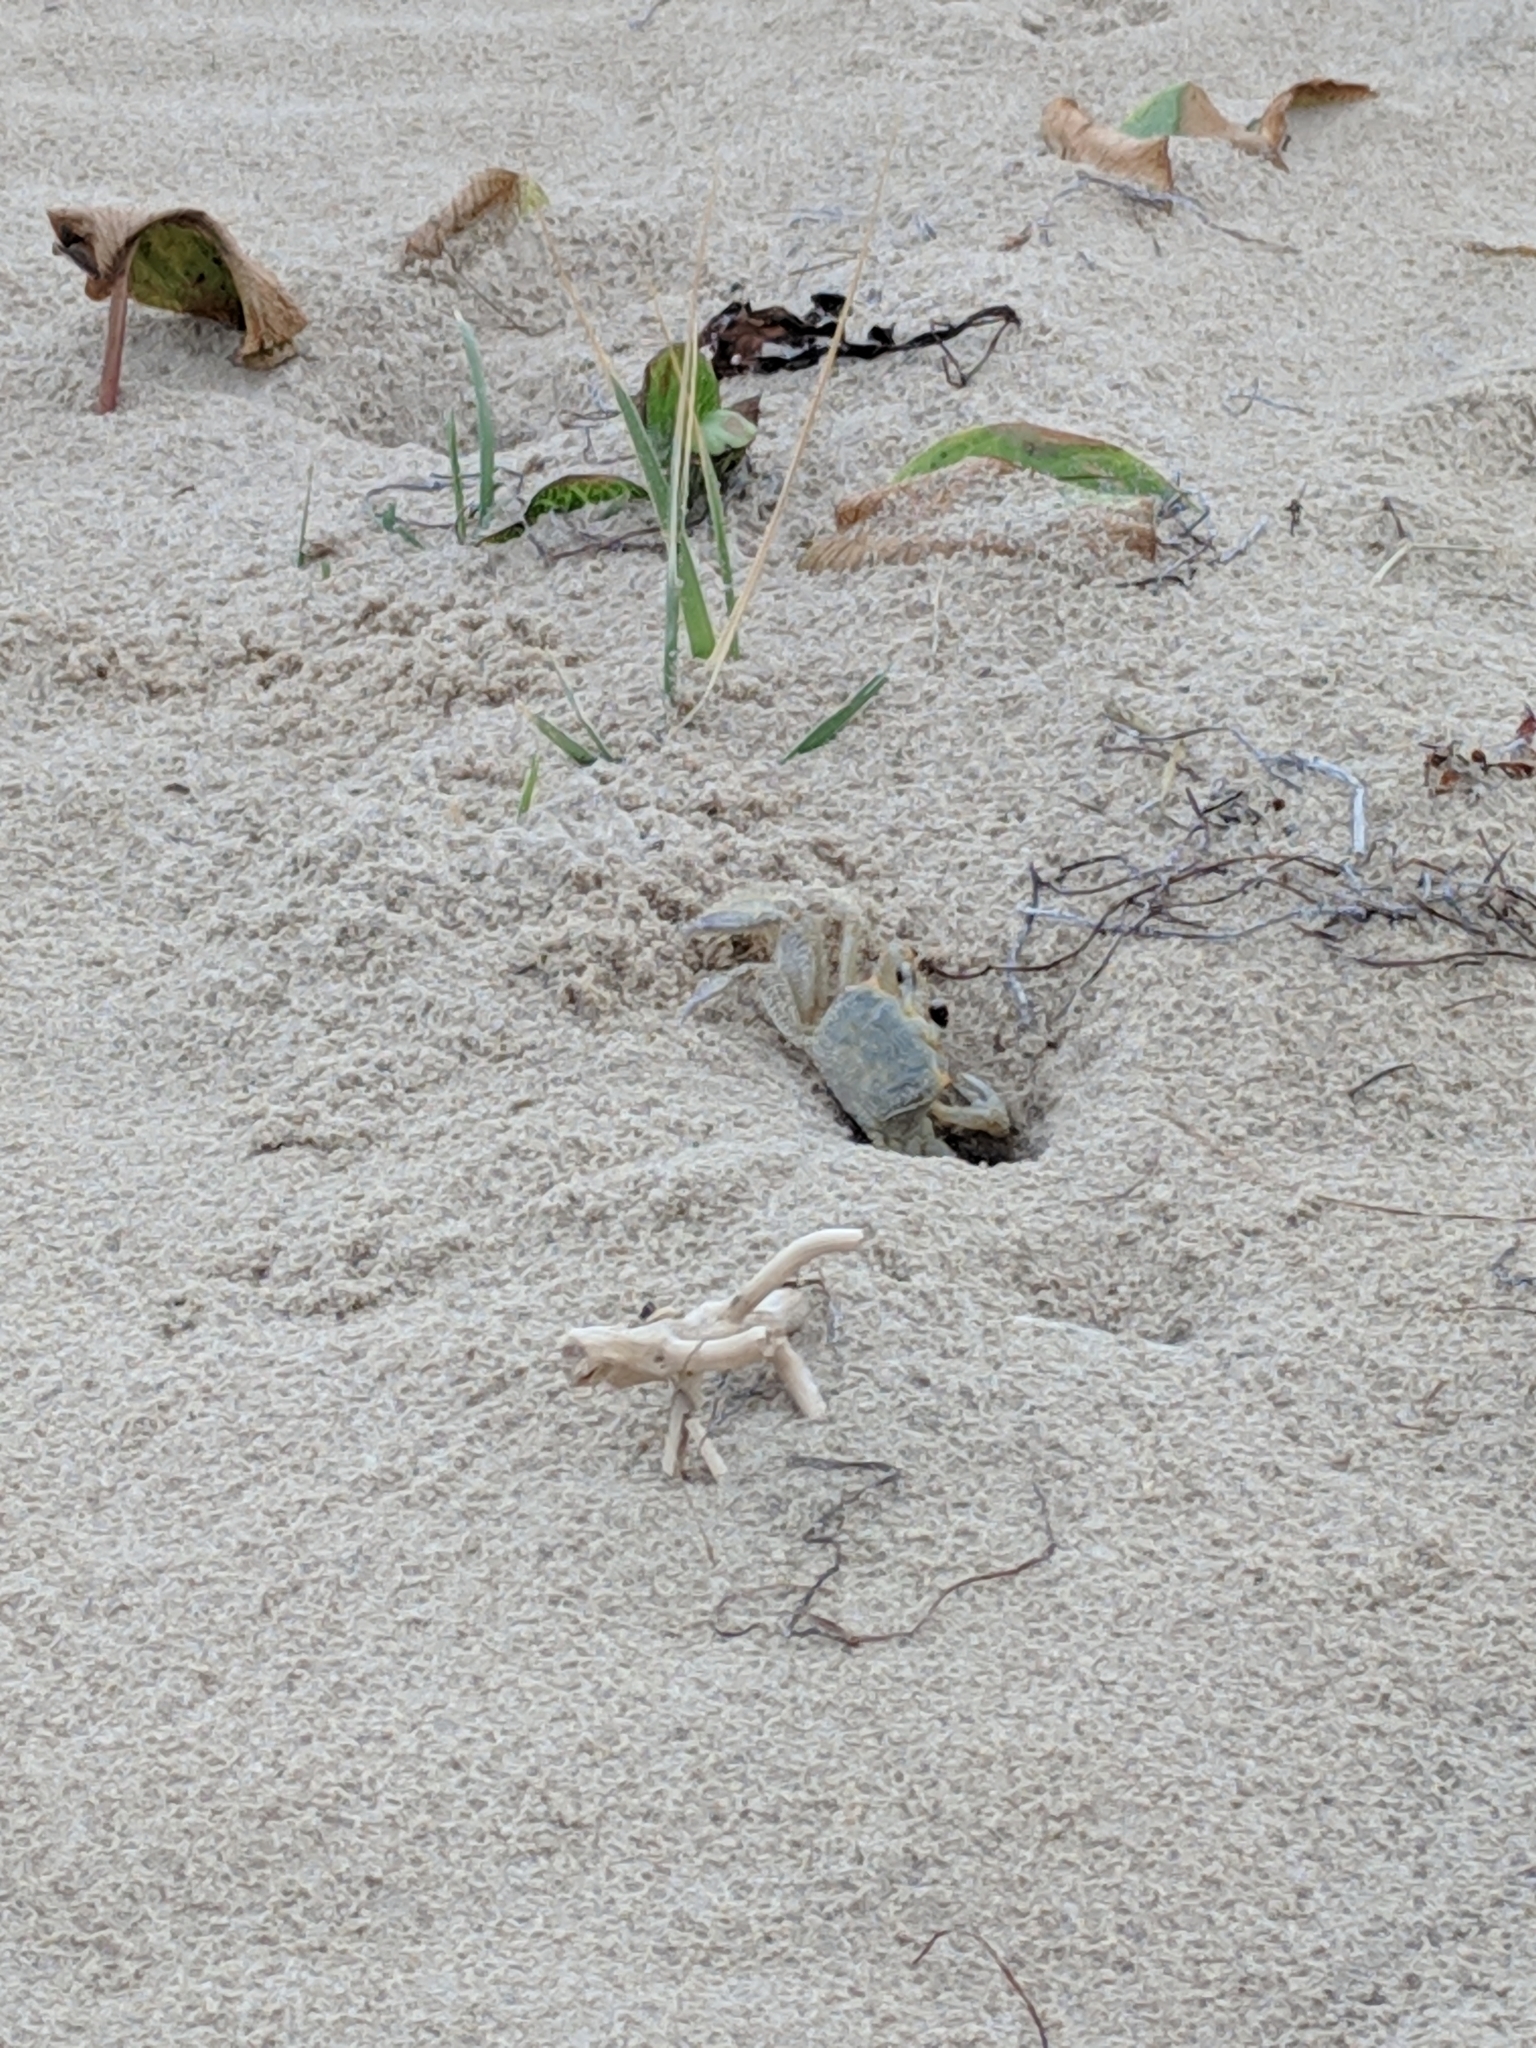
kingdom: Animalia
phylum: Arthropoda
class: Malacostraca
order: Decapoda
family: Ocypodidae
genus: Ocypode
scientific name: Ocypode quadrata
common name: Ghost crab
